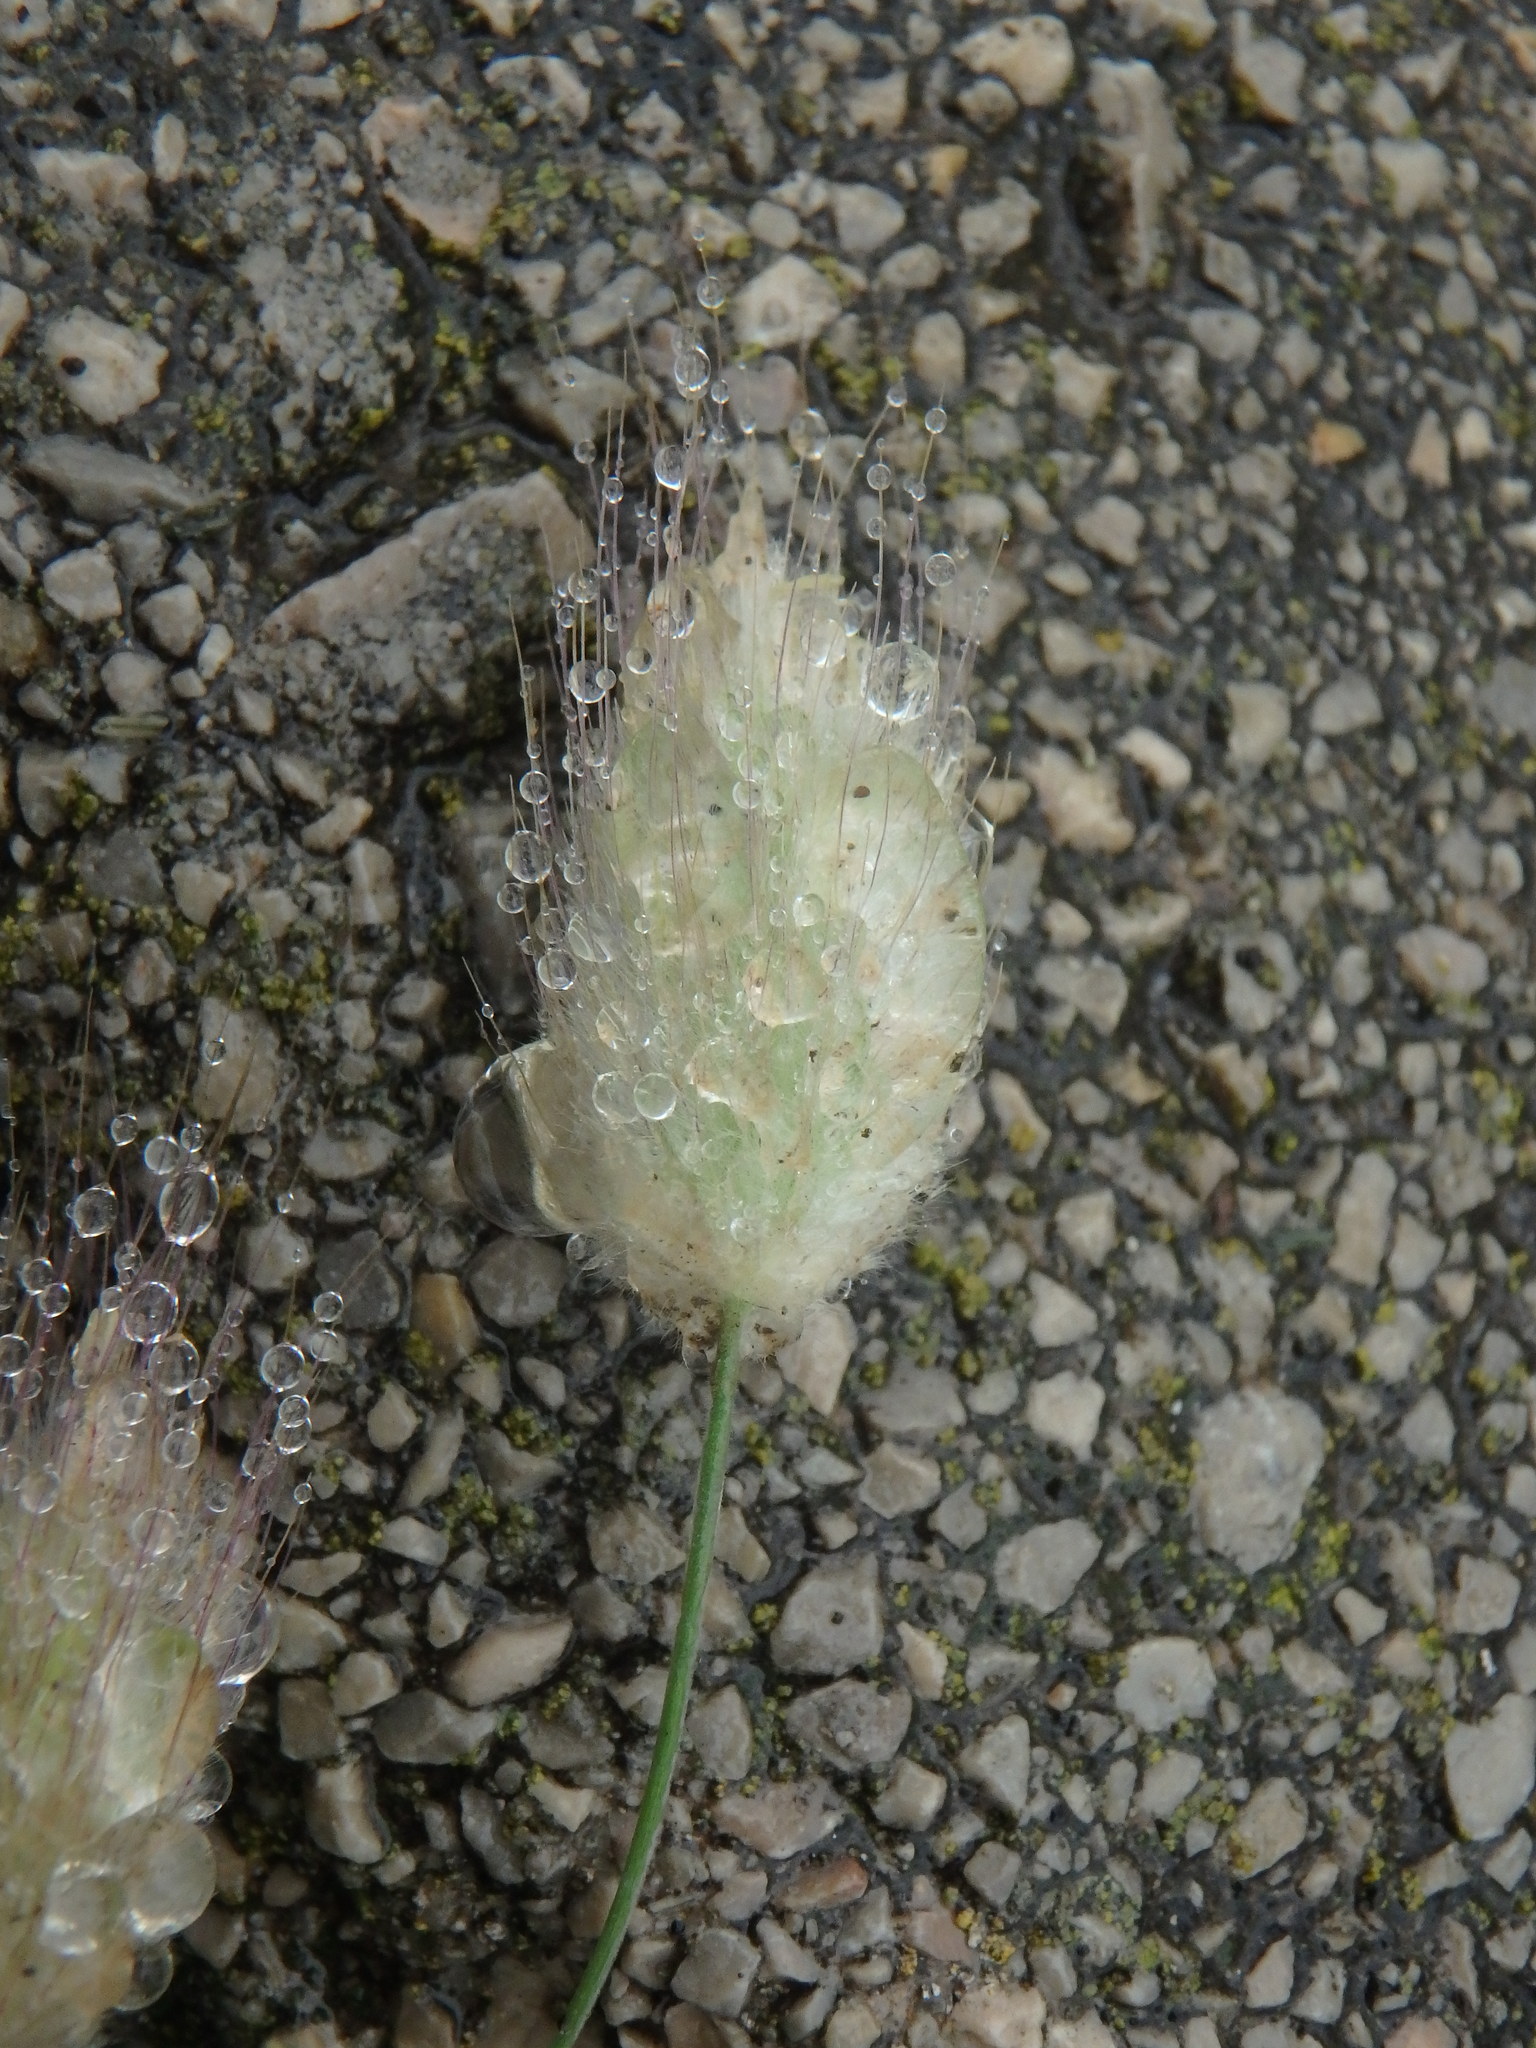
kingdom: Plantae
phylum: Tracheophyta
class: Liliopsida
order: Poales
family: Poaceae
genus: Lagurus
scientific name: Lagurus ovatus
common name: Hare's-tail
